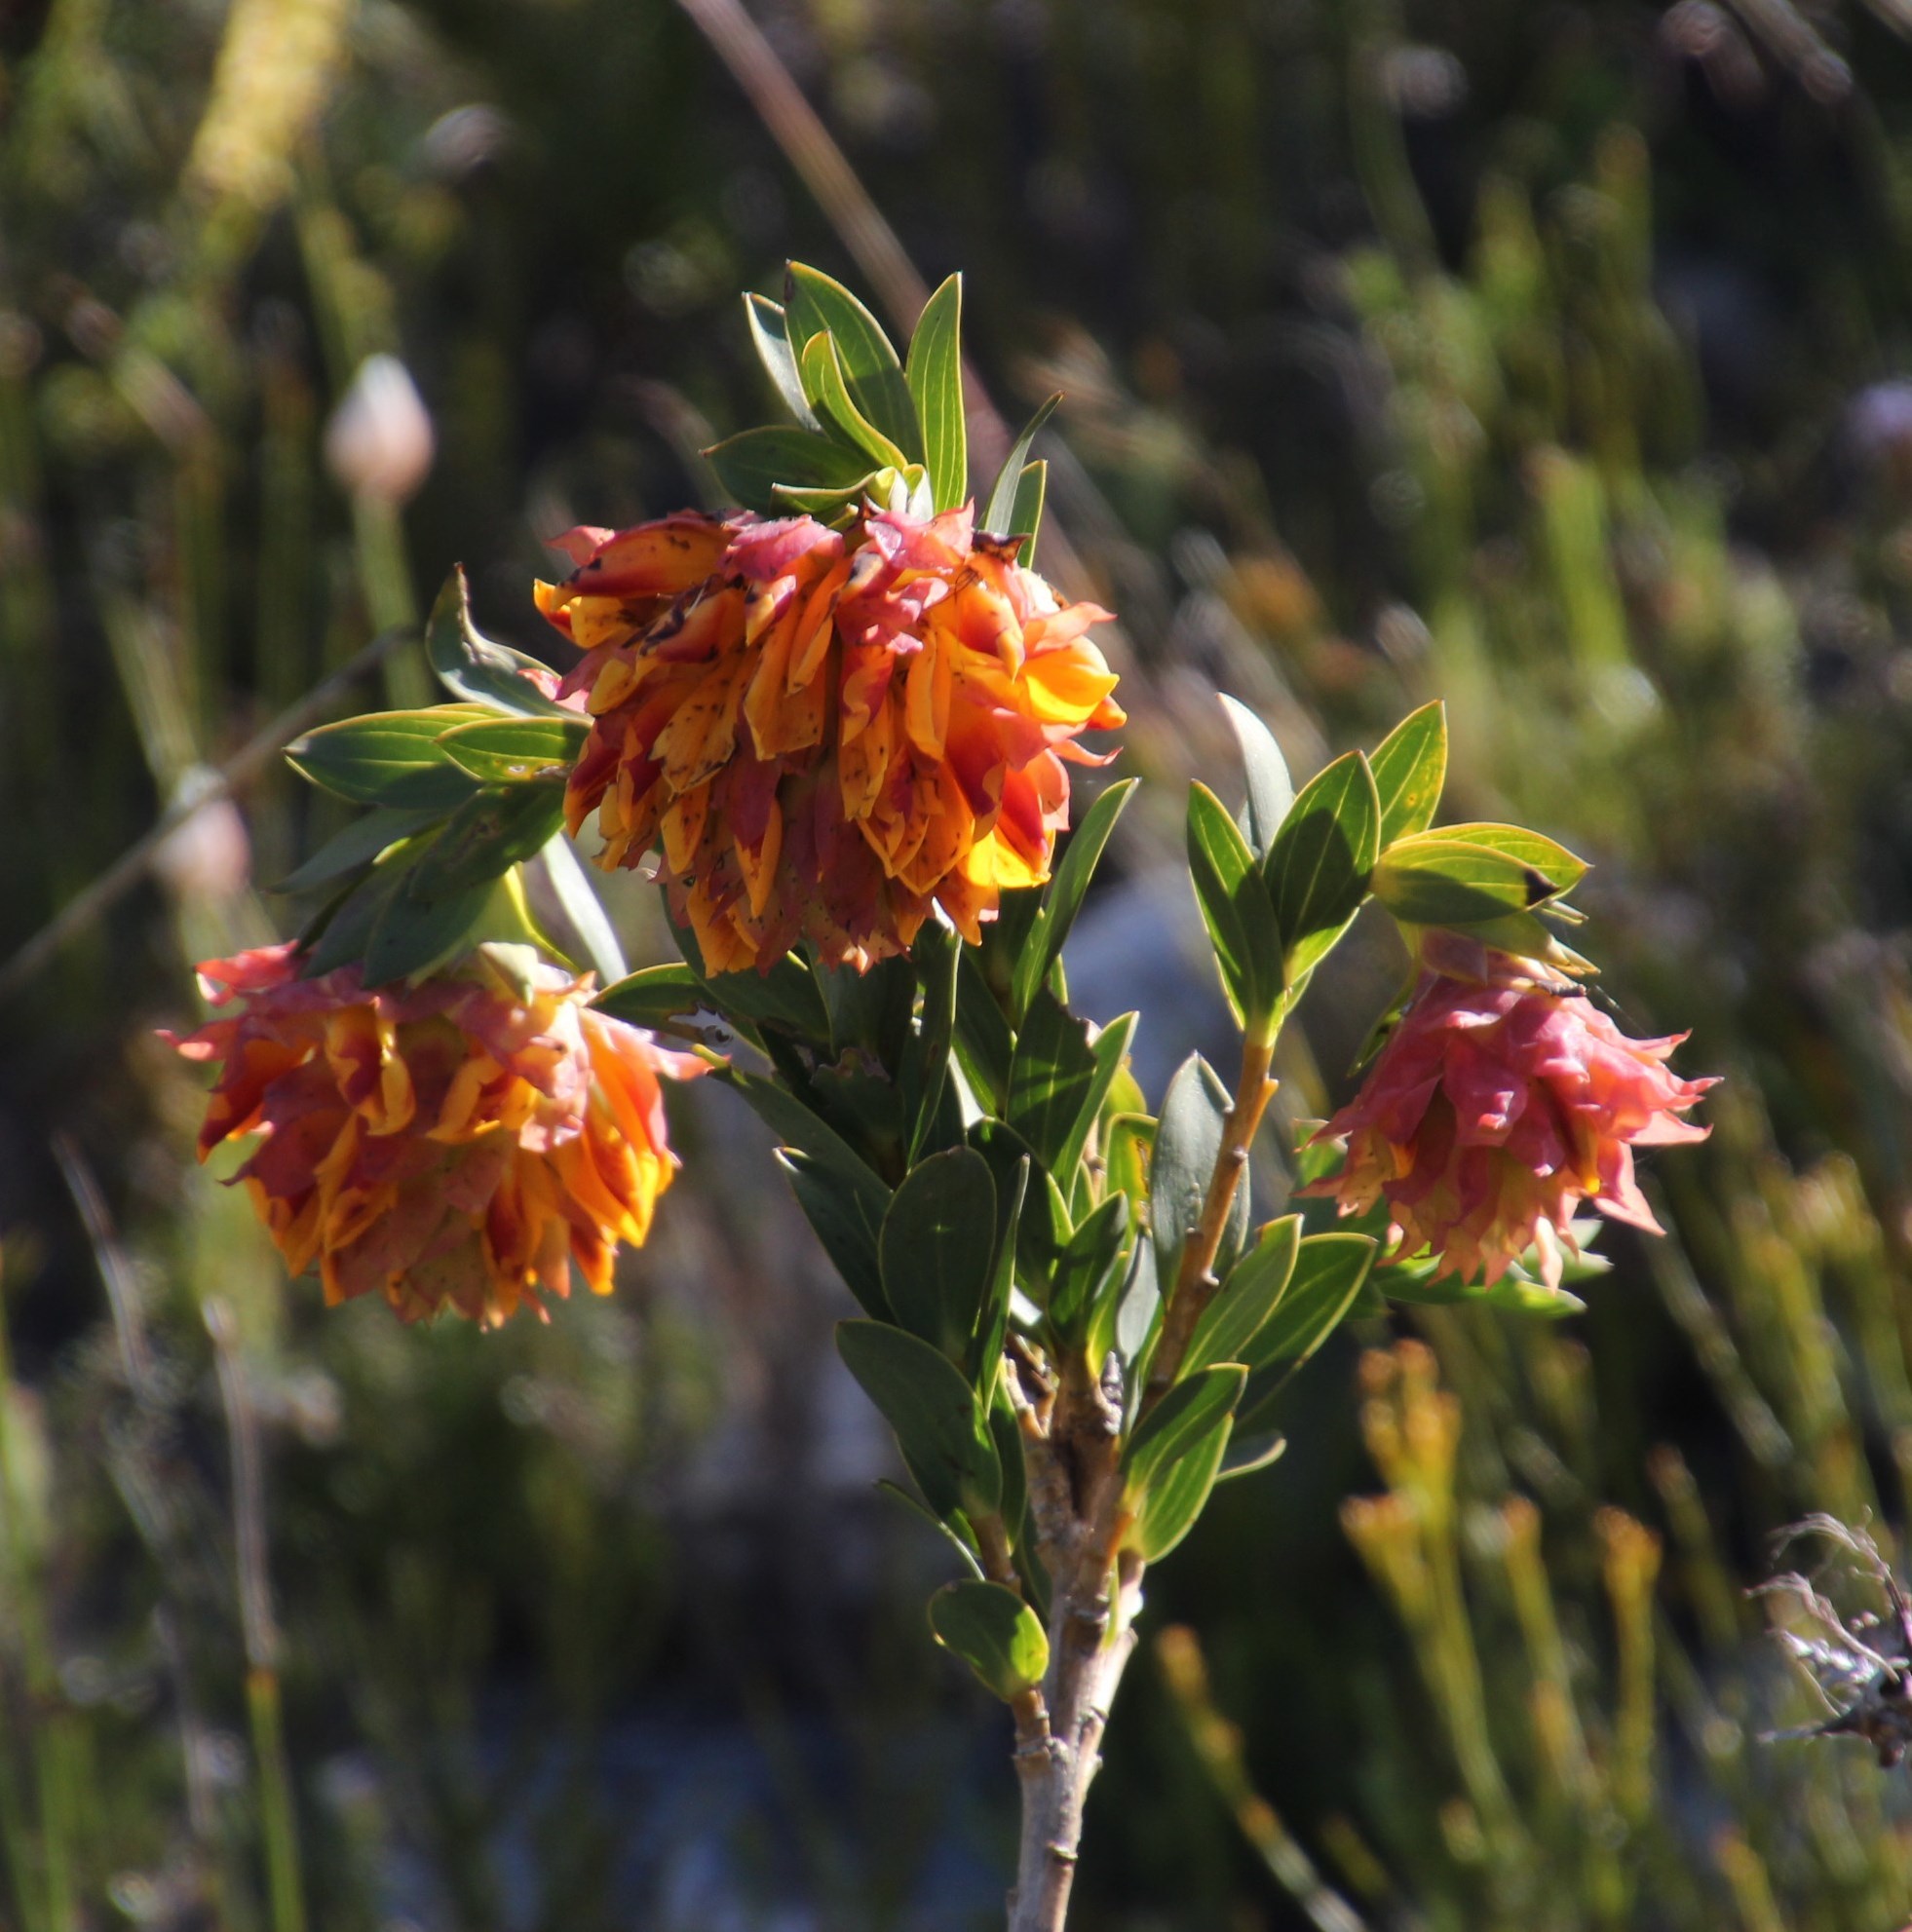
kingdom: Plantae
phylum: Tracheophyta
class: Magnoliopsida
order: Fabales
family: Fabaceae
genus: Liparia
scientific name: Liparia splendens
